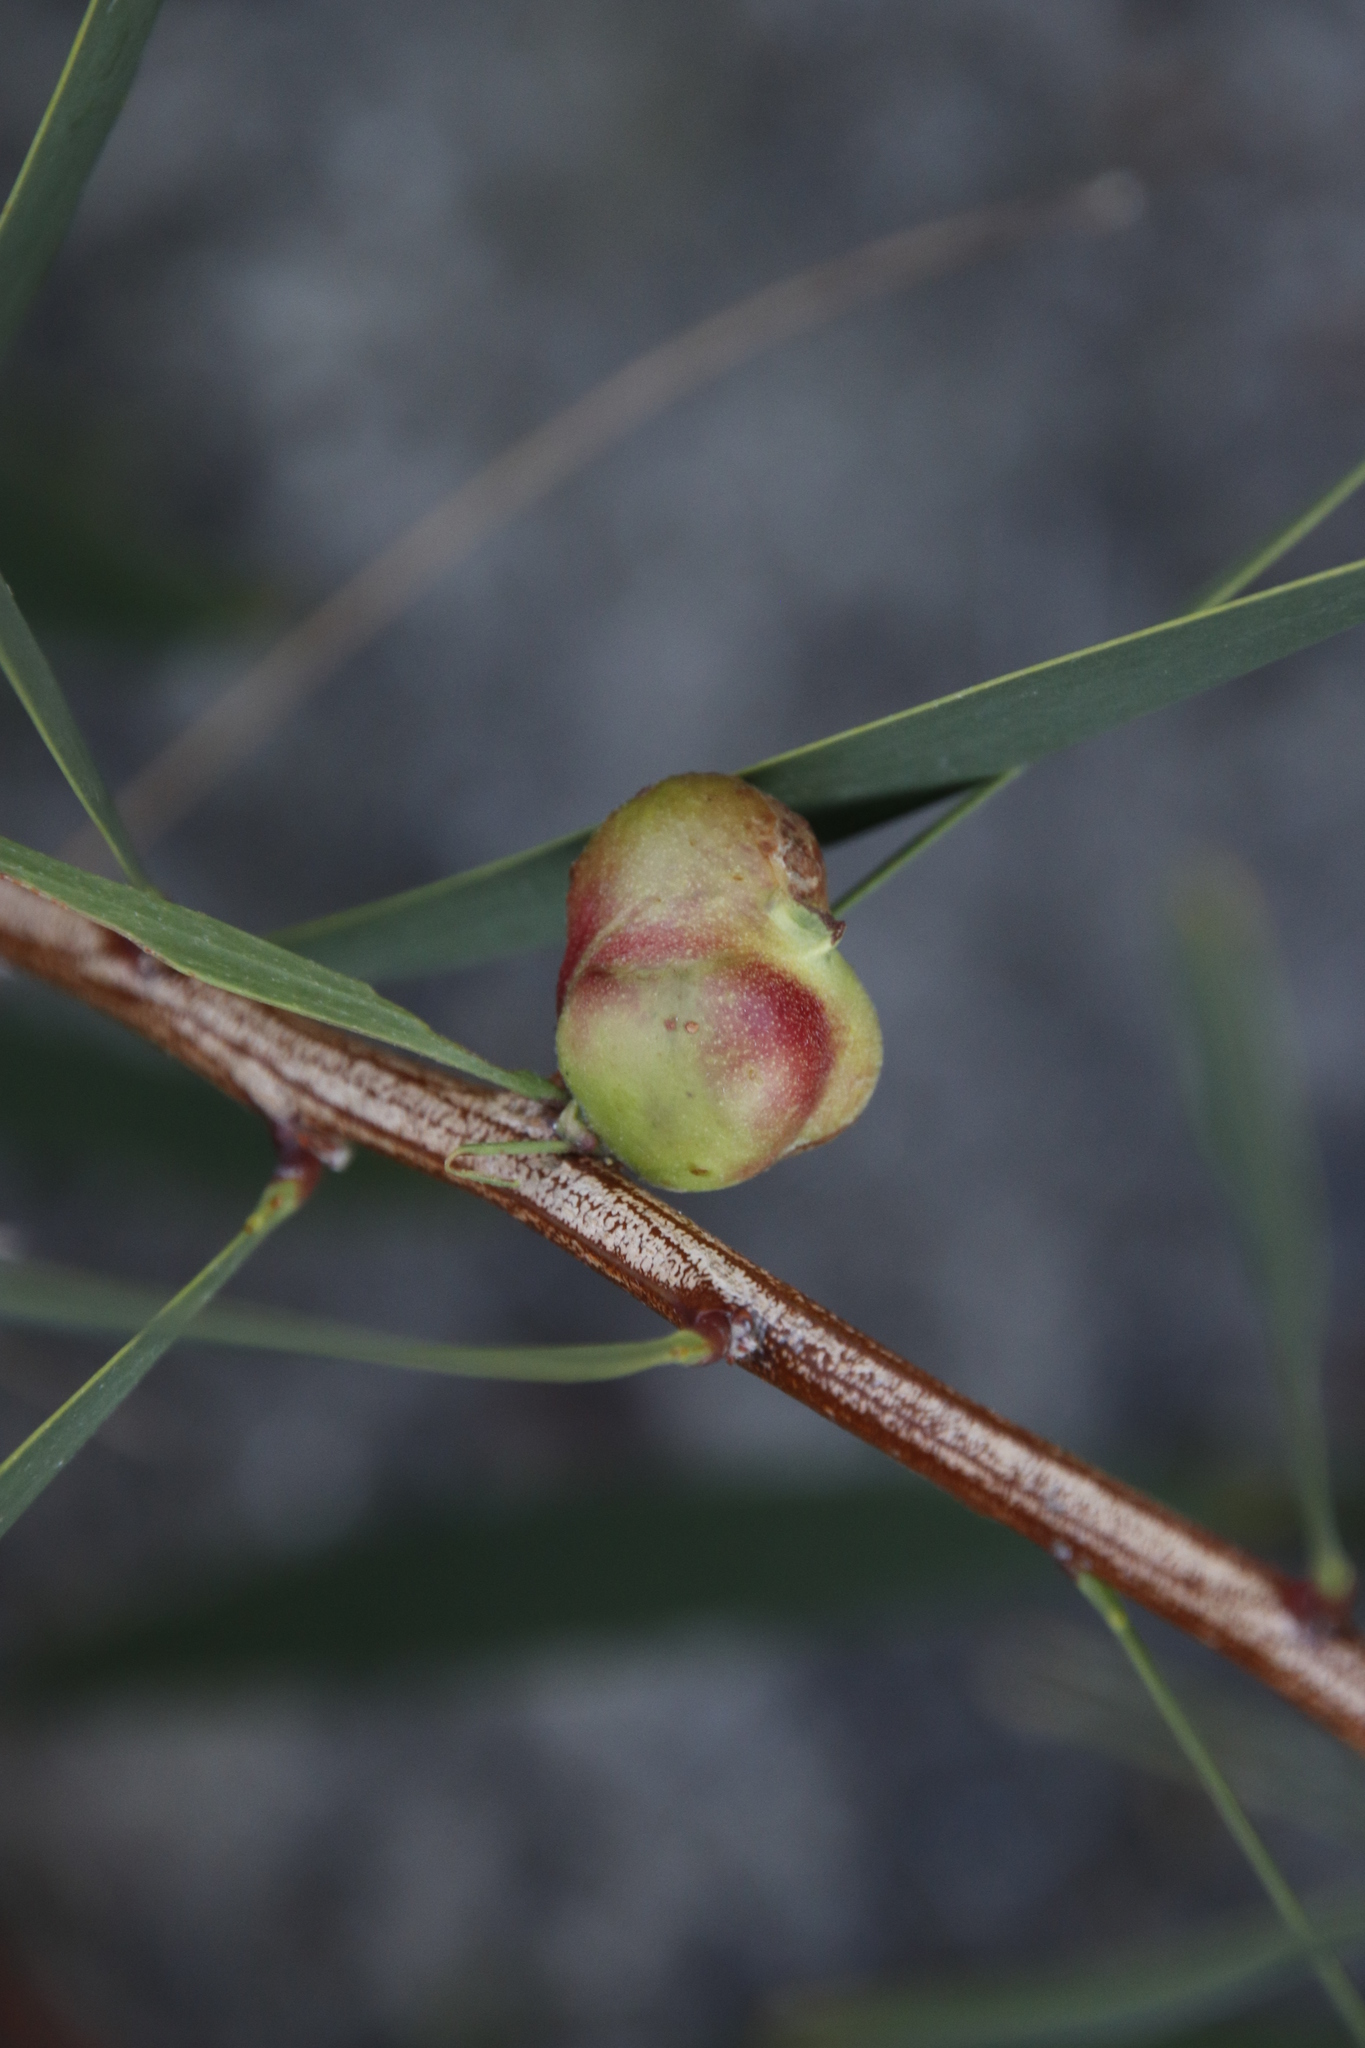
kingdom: Animalia
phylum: Arthropoda
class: Insecta
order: Hymenoptera
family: Pteromalidae
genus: Trichilogaster
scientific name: Trichilogaster acaciaelongifoliae
